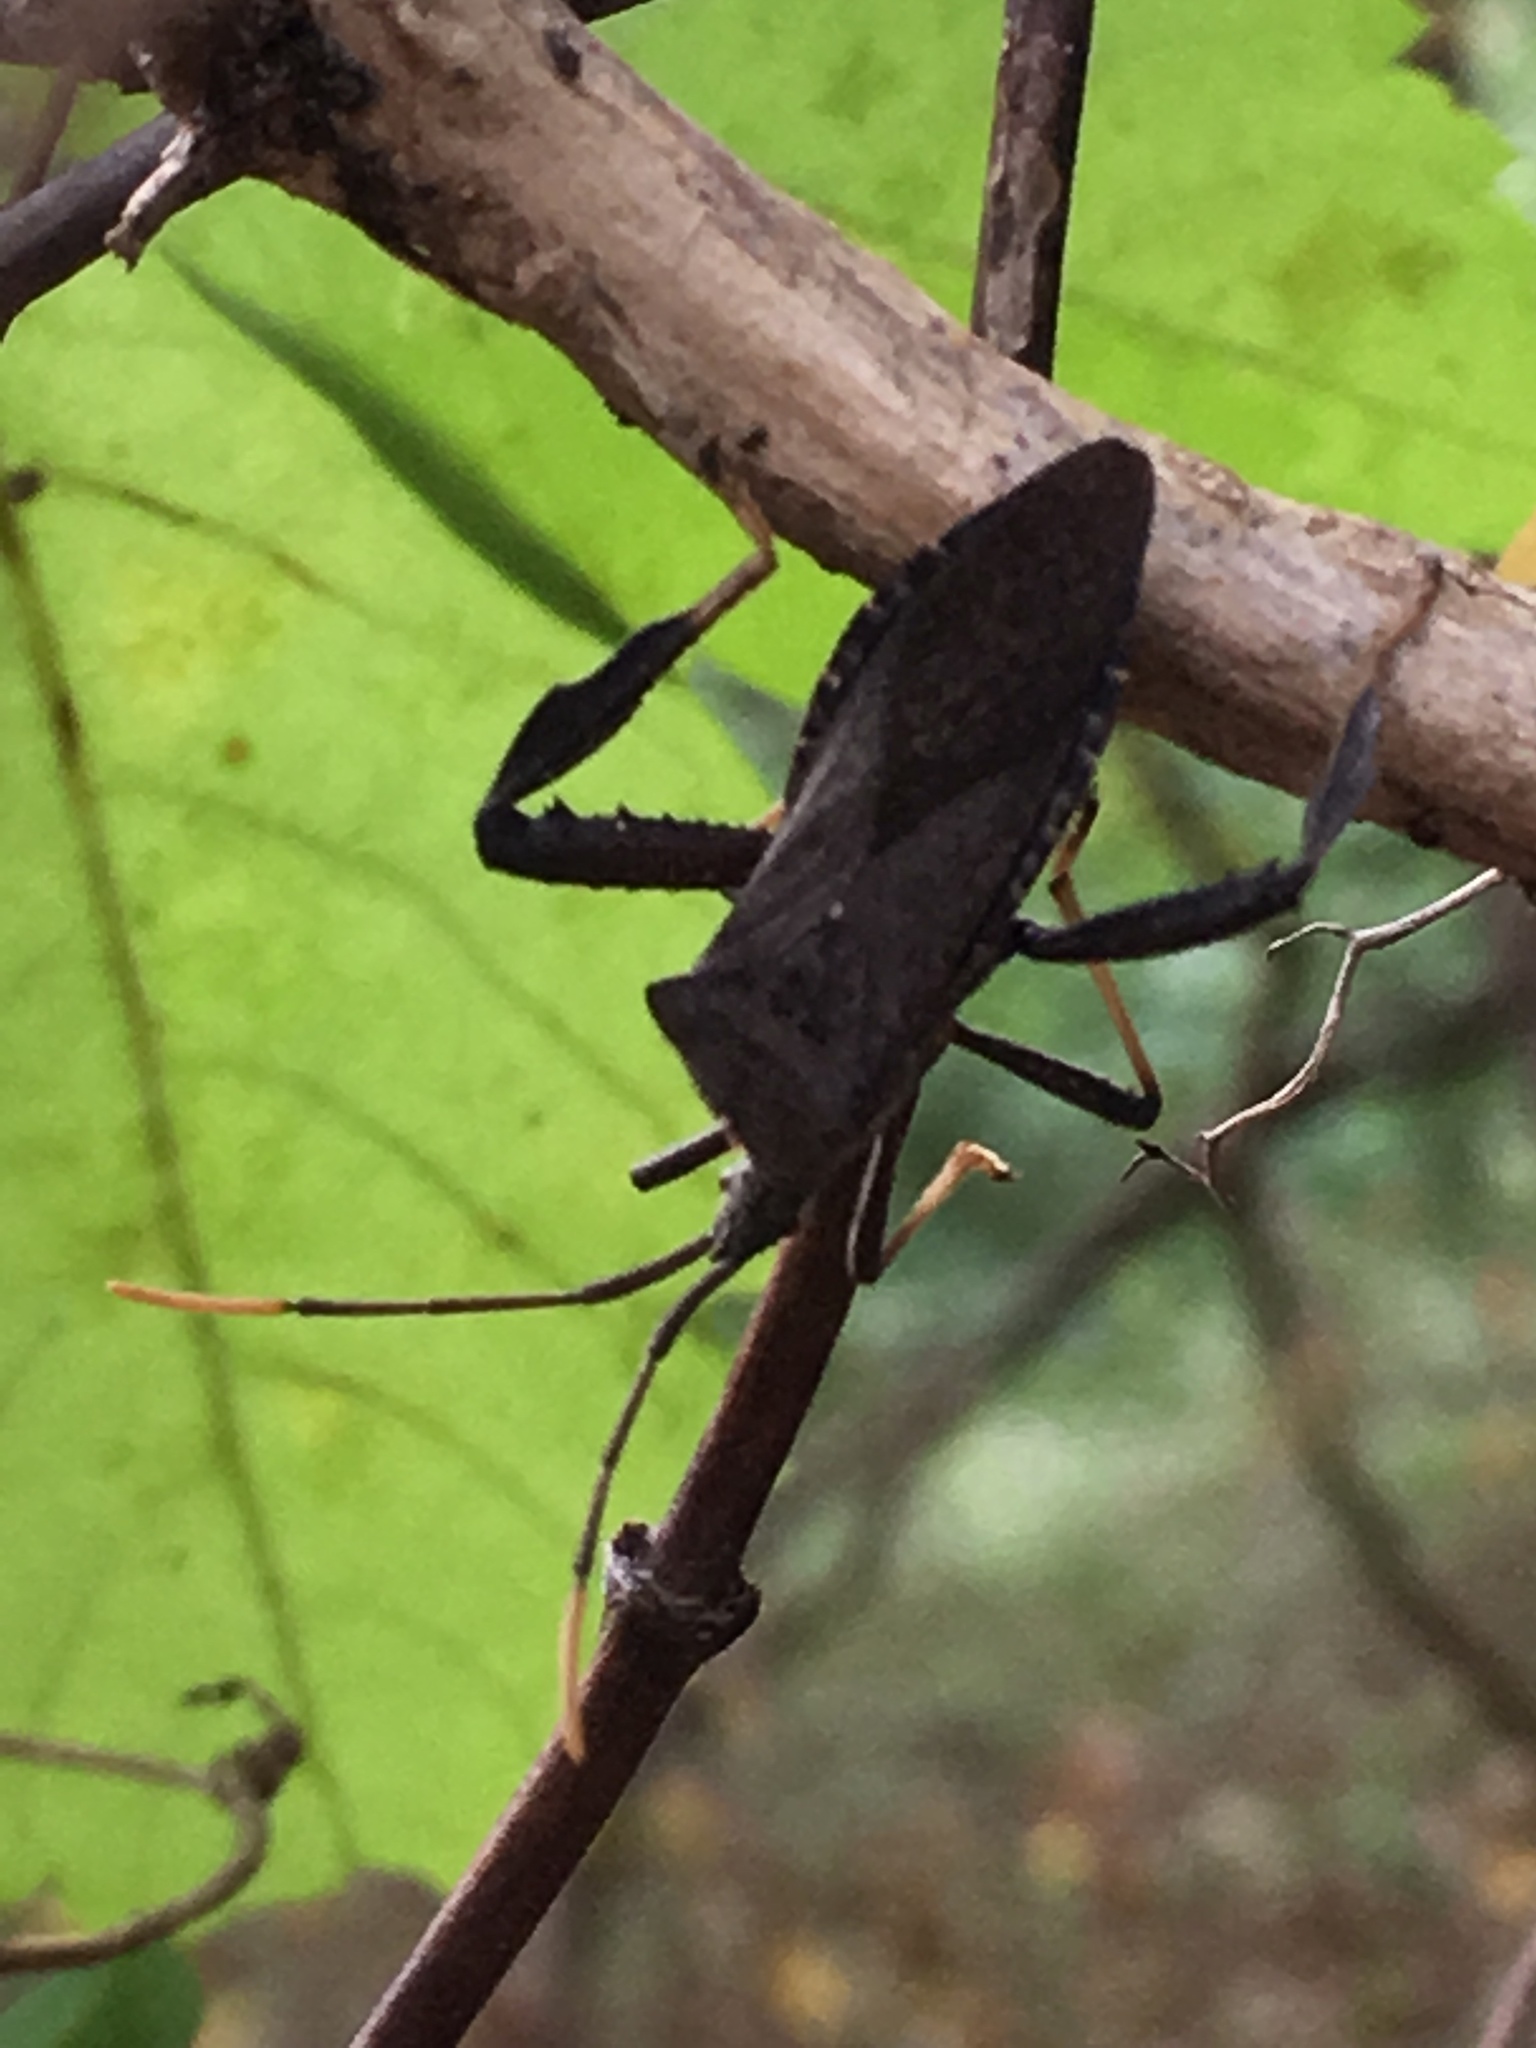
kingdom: Animalia
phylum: Arthropoda
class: Insecta
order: Hemiptera
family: Coreidae
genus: Acanthocephala
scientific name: Acanthocephala terminalis
